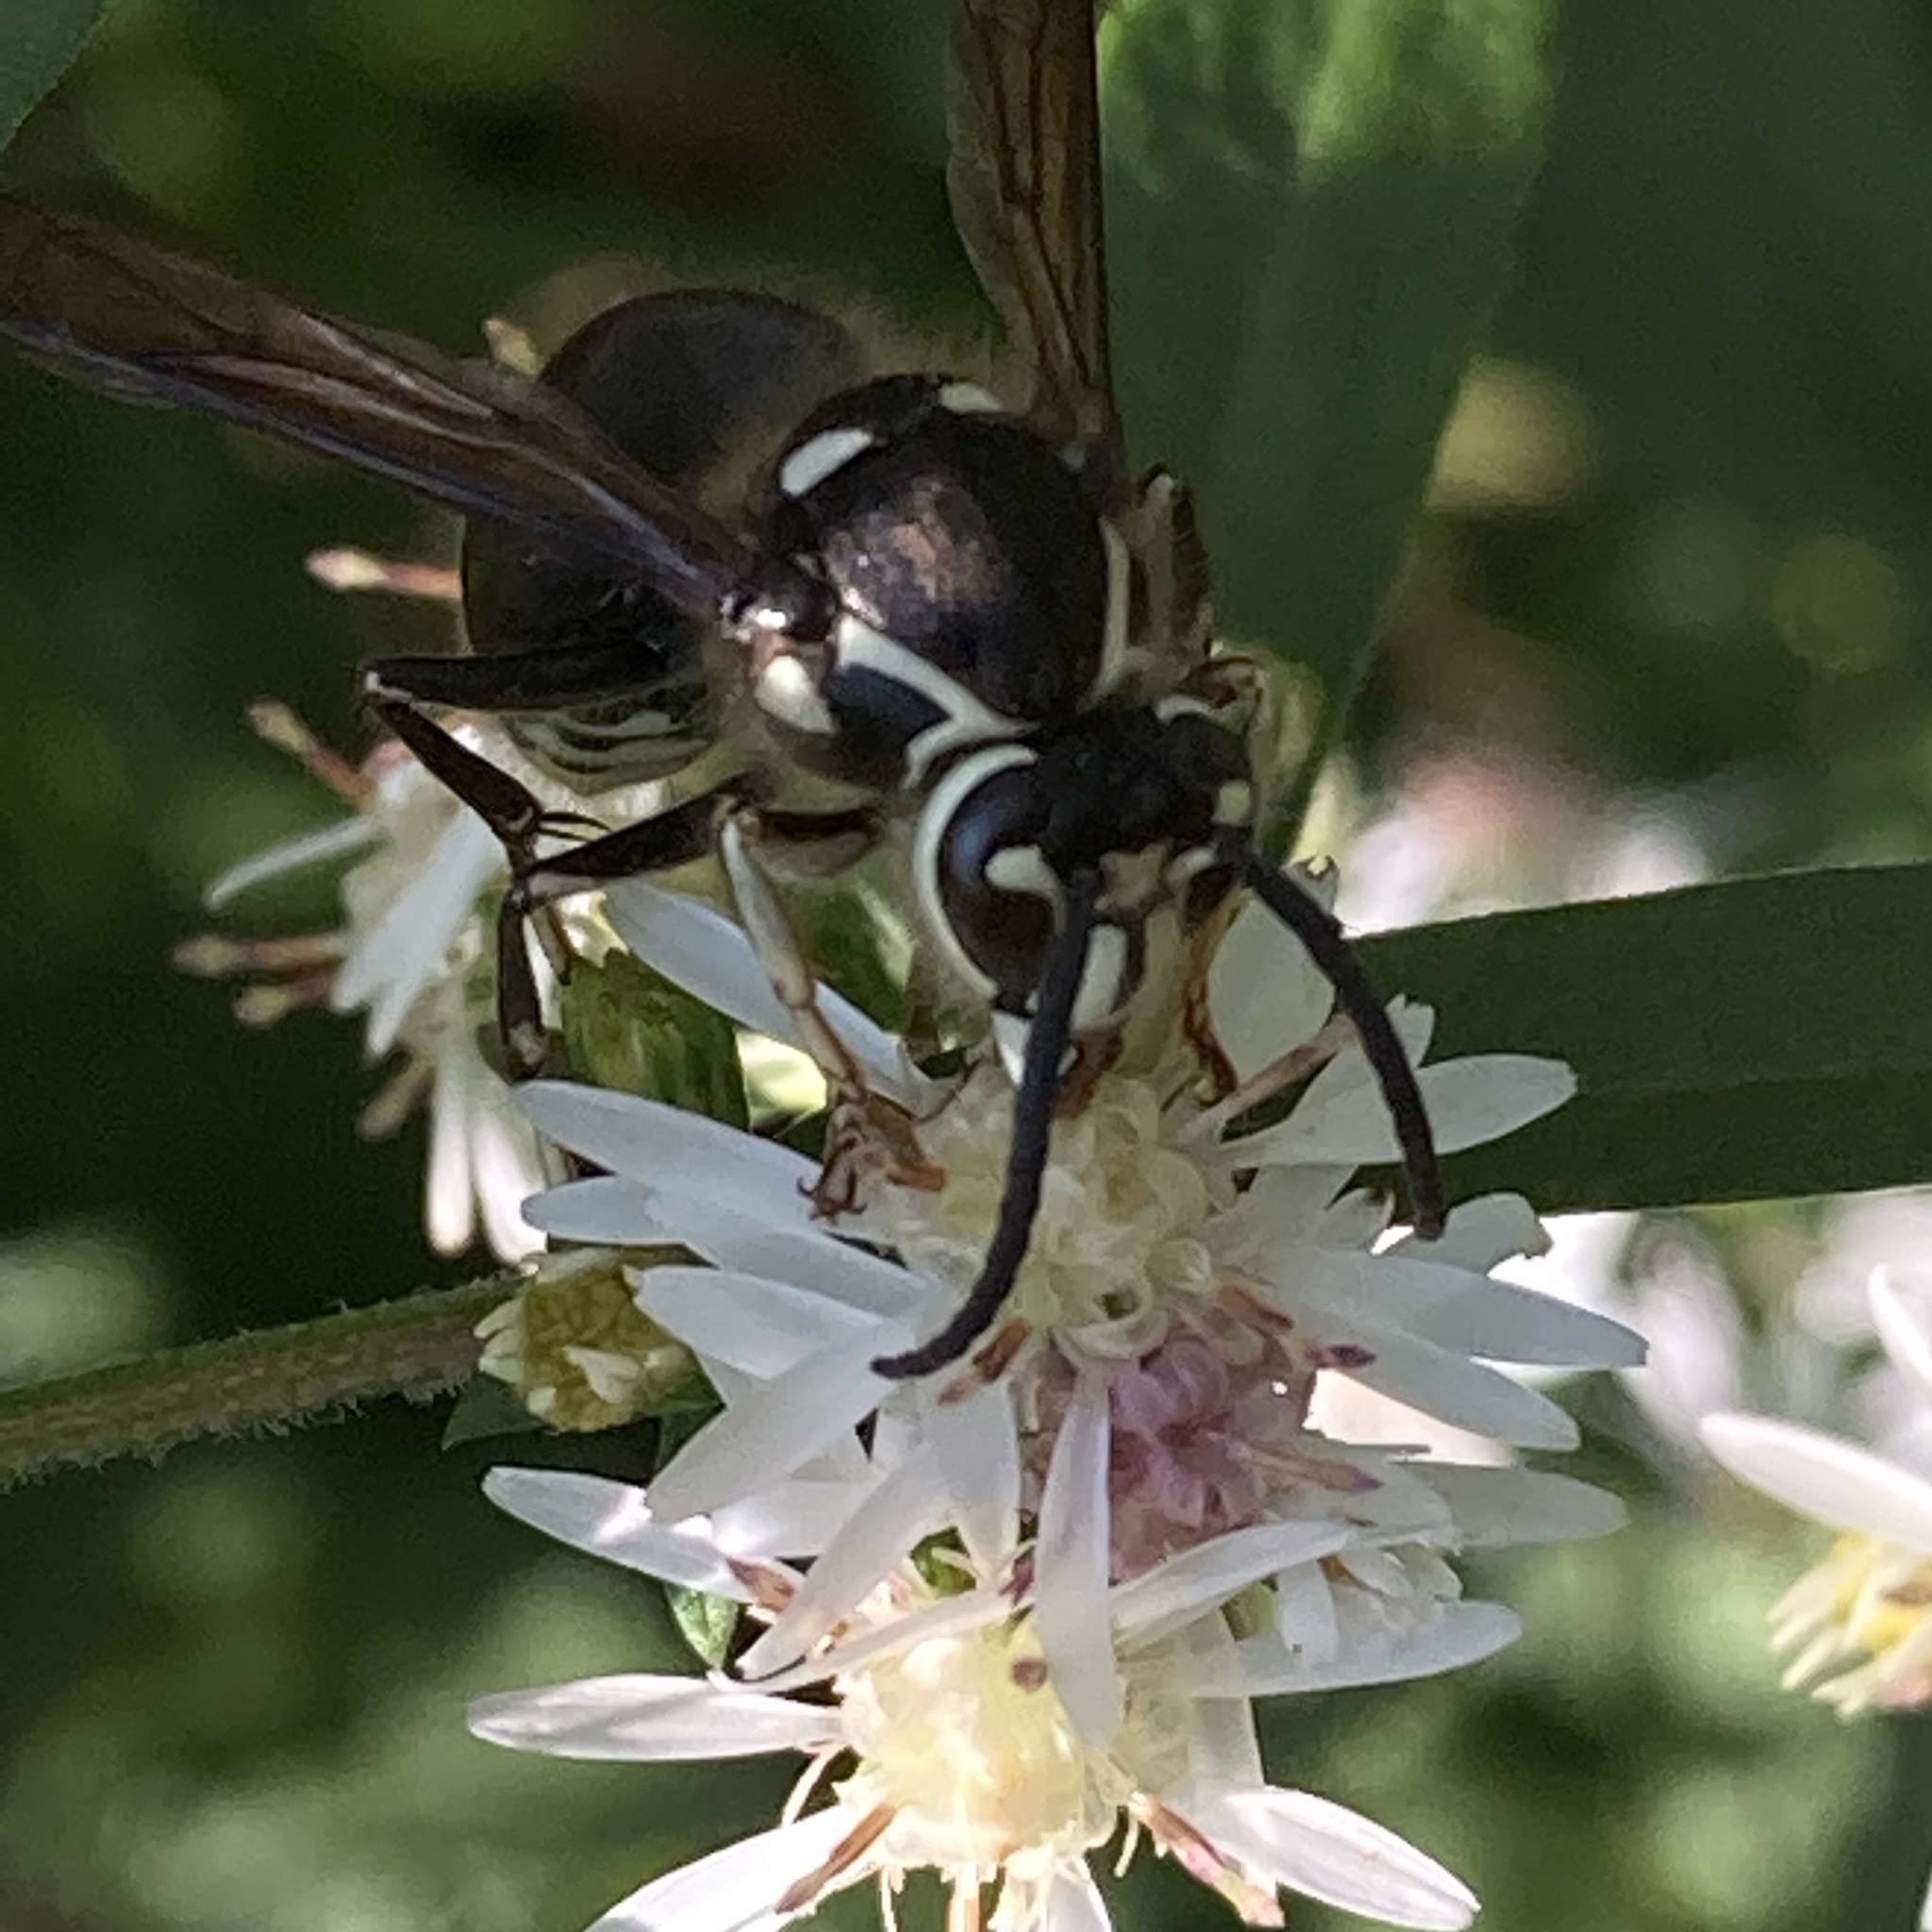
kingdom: Animalia
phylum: Arthropoda
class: Insecta
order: Hymenoptera
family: Vespidae
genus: Dolichovespula
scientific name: Dolichovespula maculata
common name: Bald-faced hornet
